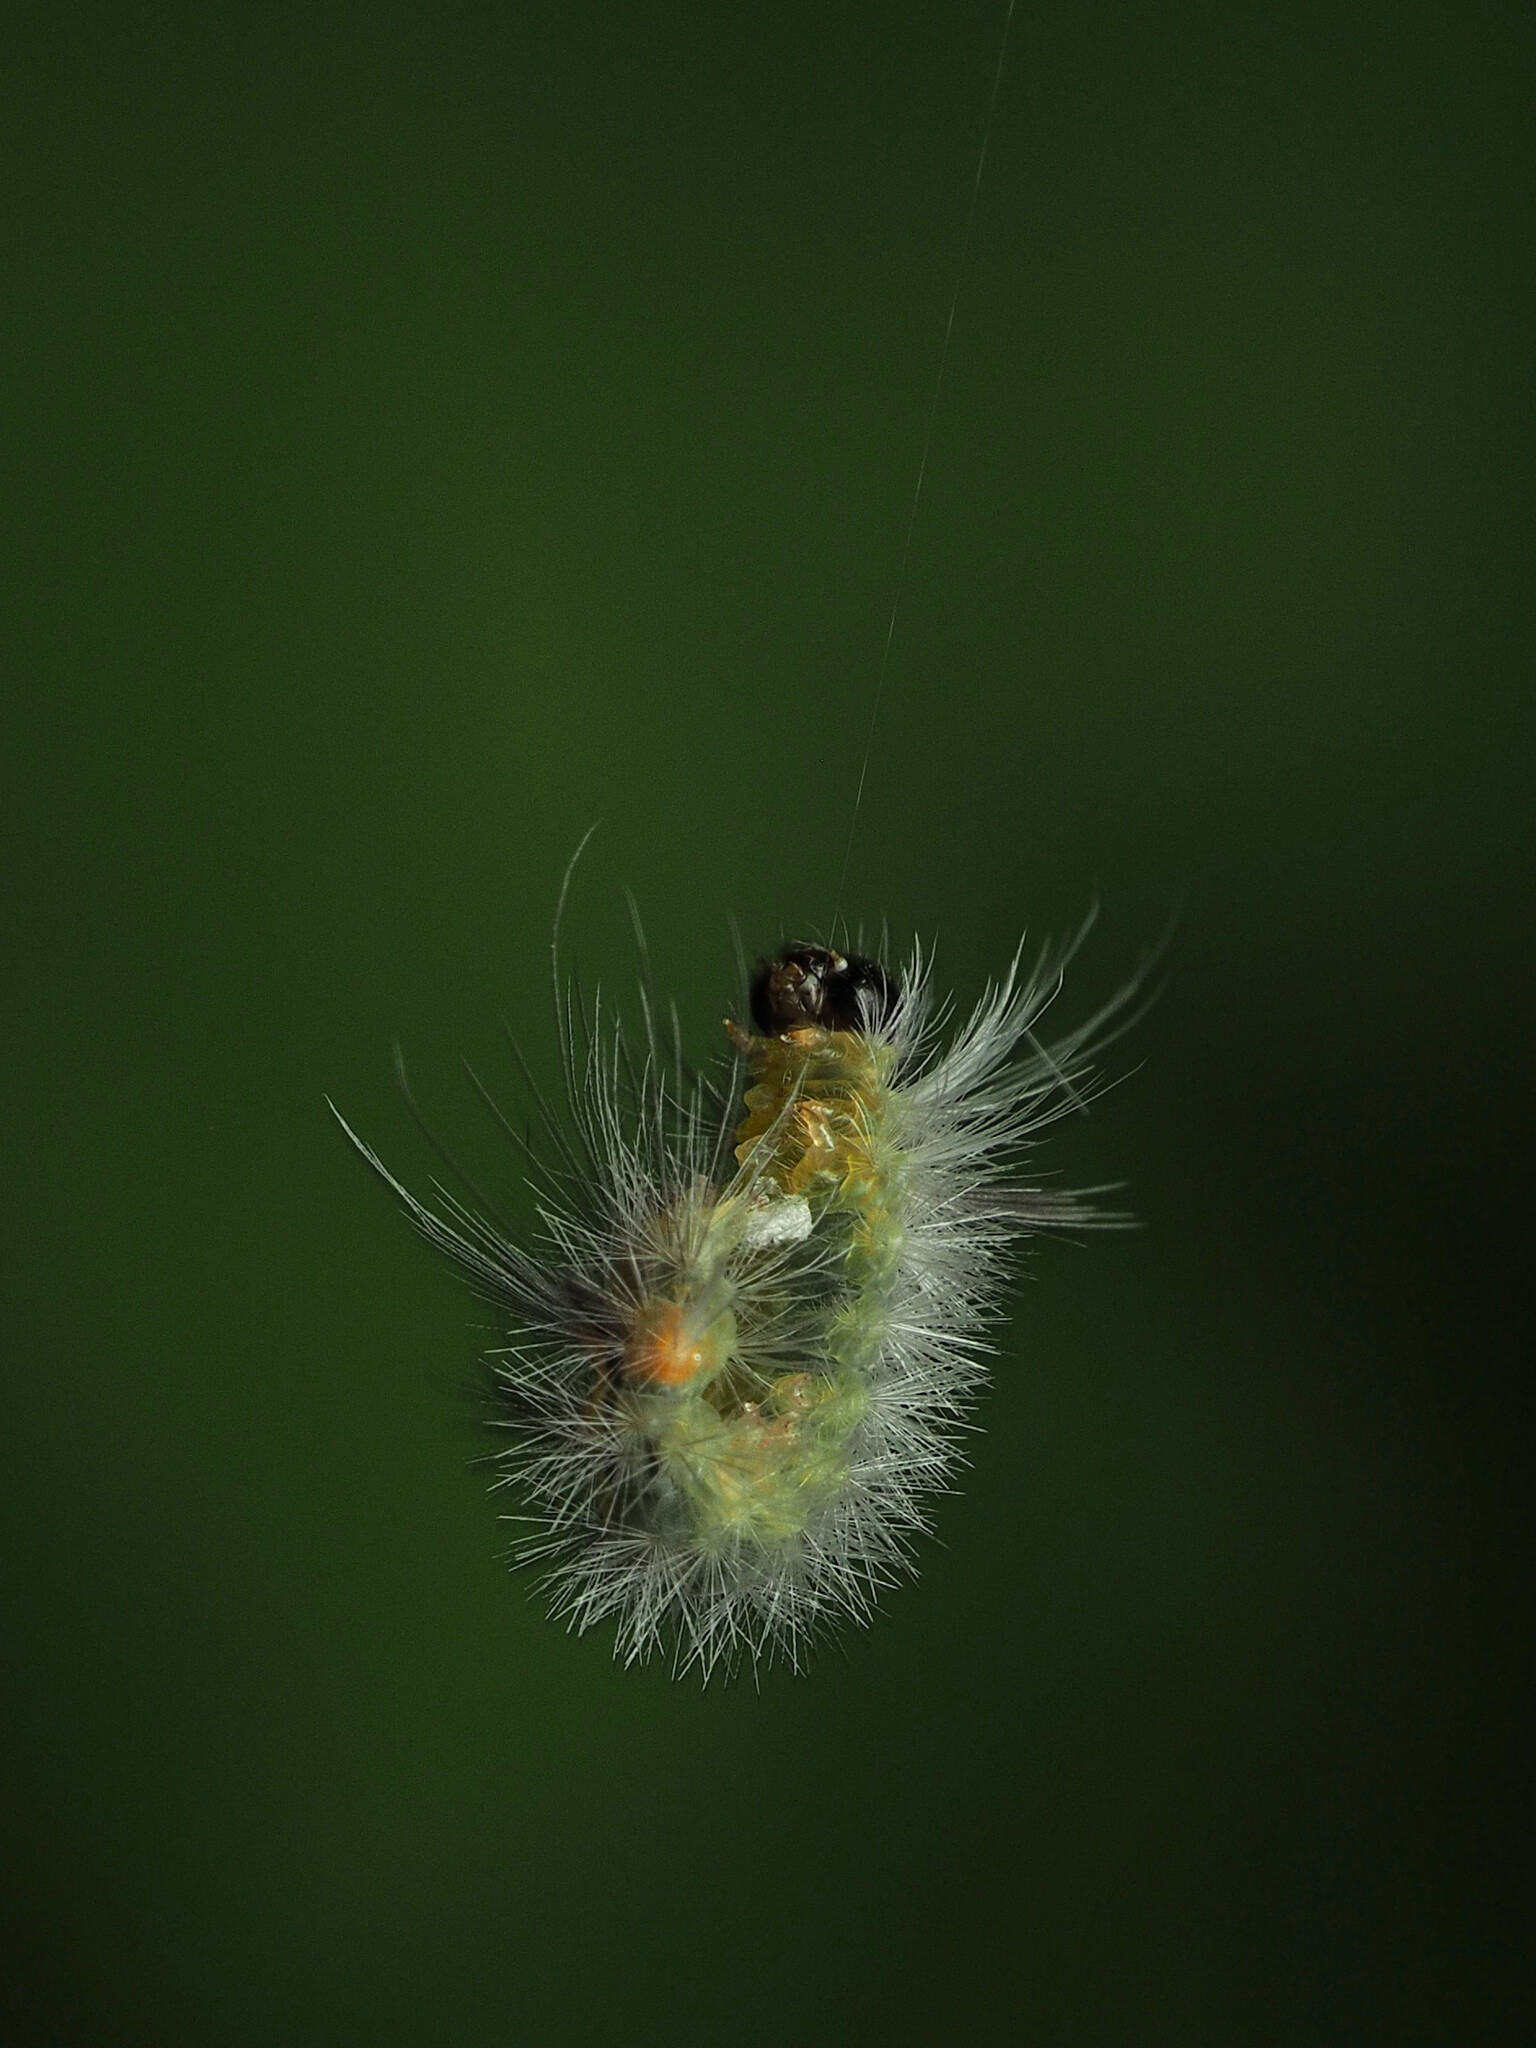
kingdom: Animalia
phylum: Arthropoda
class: Insecta
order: Lepidoptera
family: Erebidae
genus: Halysidota
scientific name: Halysidota tessellaris
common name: Banded tussock moth
